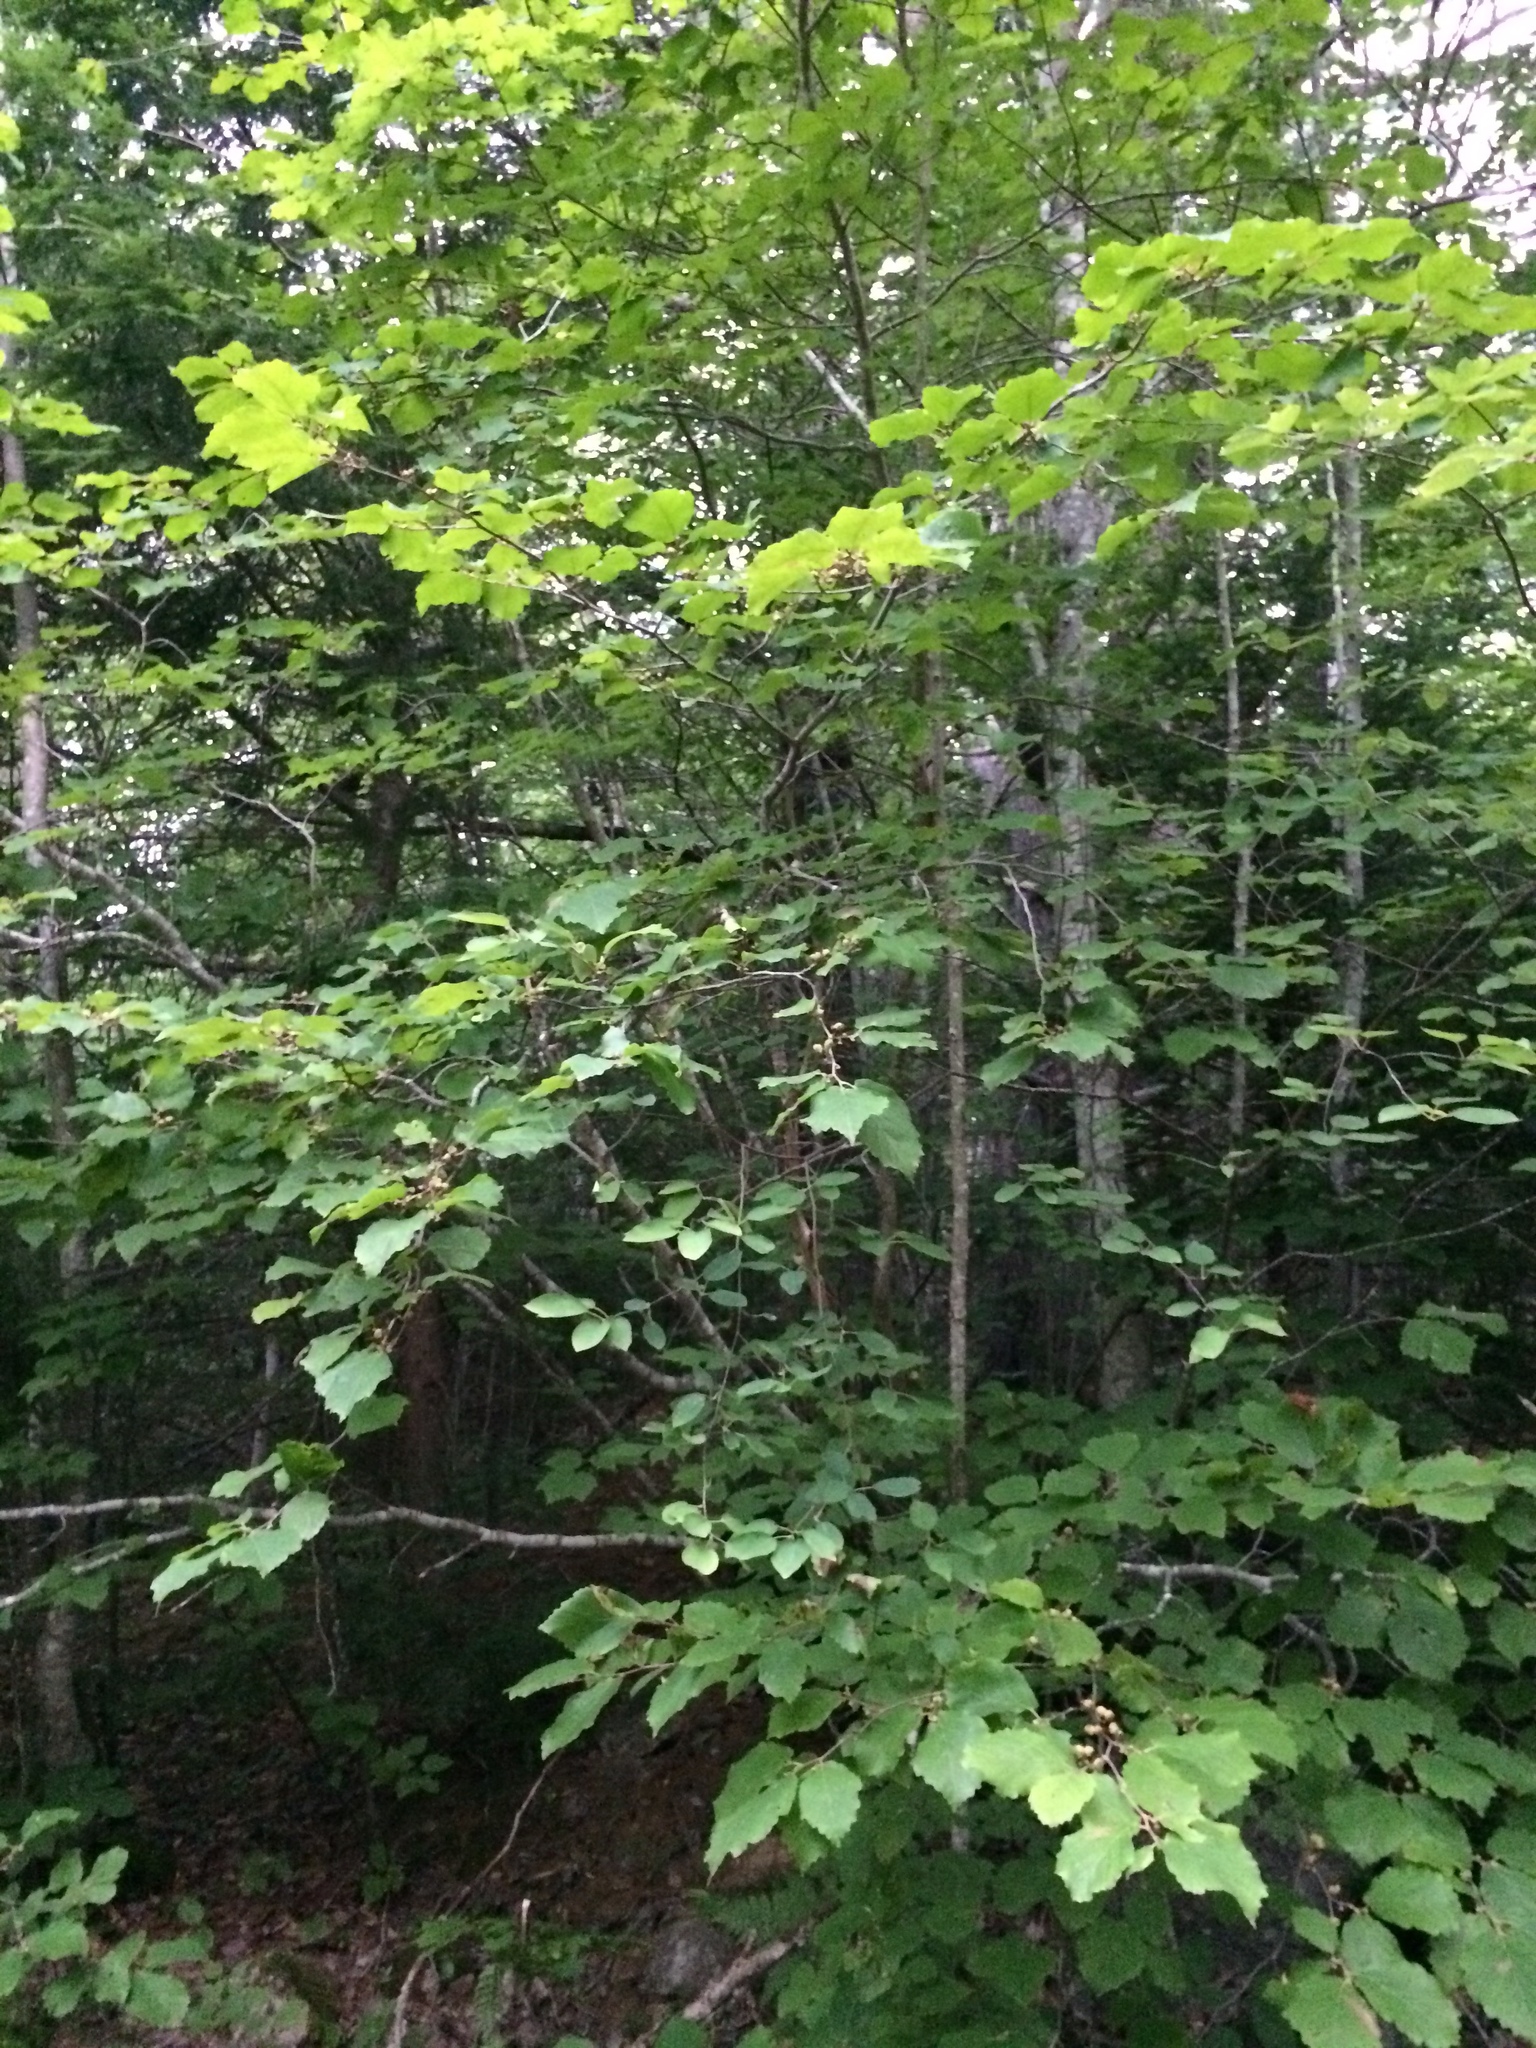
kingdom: Plantae
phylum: Tracheophyta
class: Magnoliopsida
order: Saxifragales
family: Hamamelidaceae
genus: Hamamelis
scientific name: Hamamelis virginiana
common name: Witch-hazel
